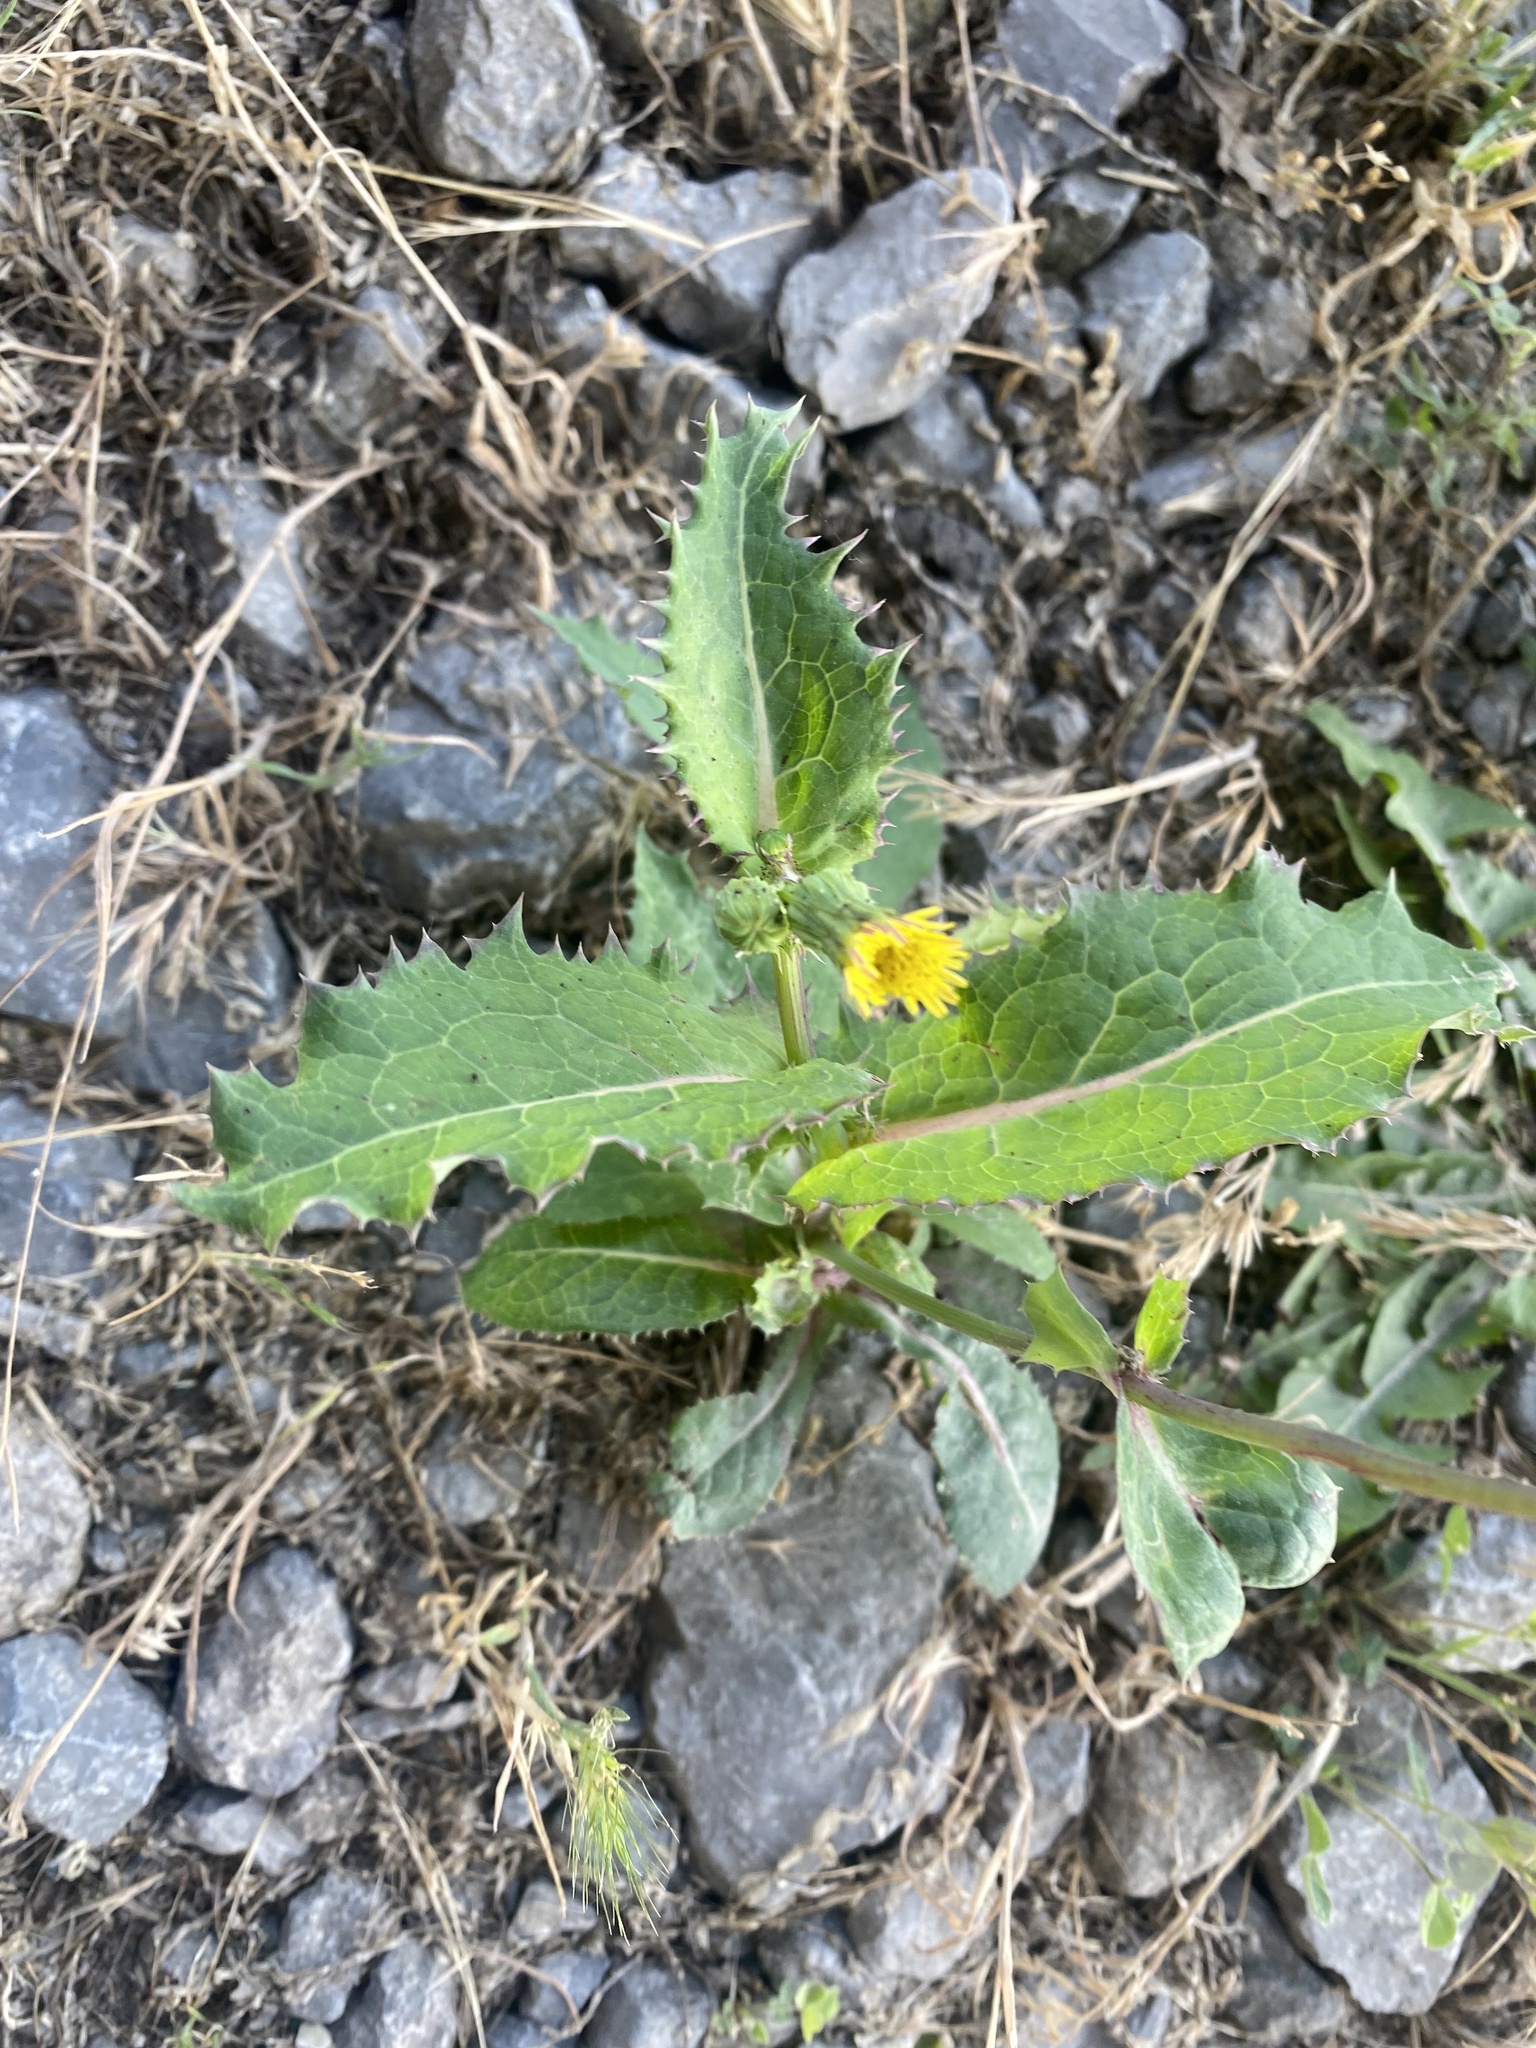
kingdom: Plantae
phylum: Tracheophyta
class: Magnoliopsida
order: Asterales
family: Asteraceae
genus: Sonchus
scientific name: Sonchus asper
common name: Prickly sow-thistle
